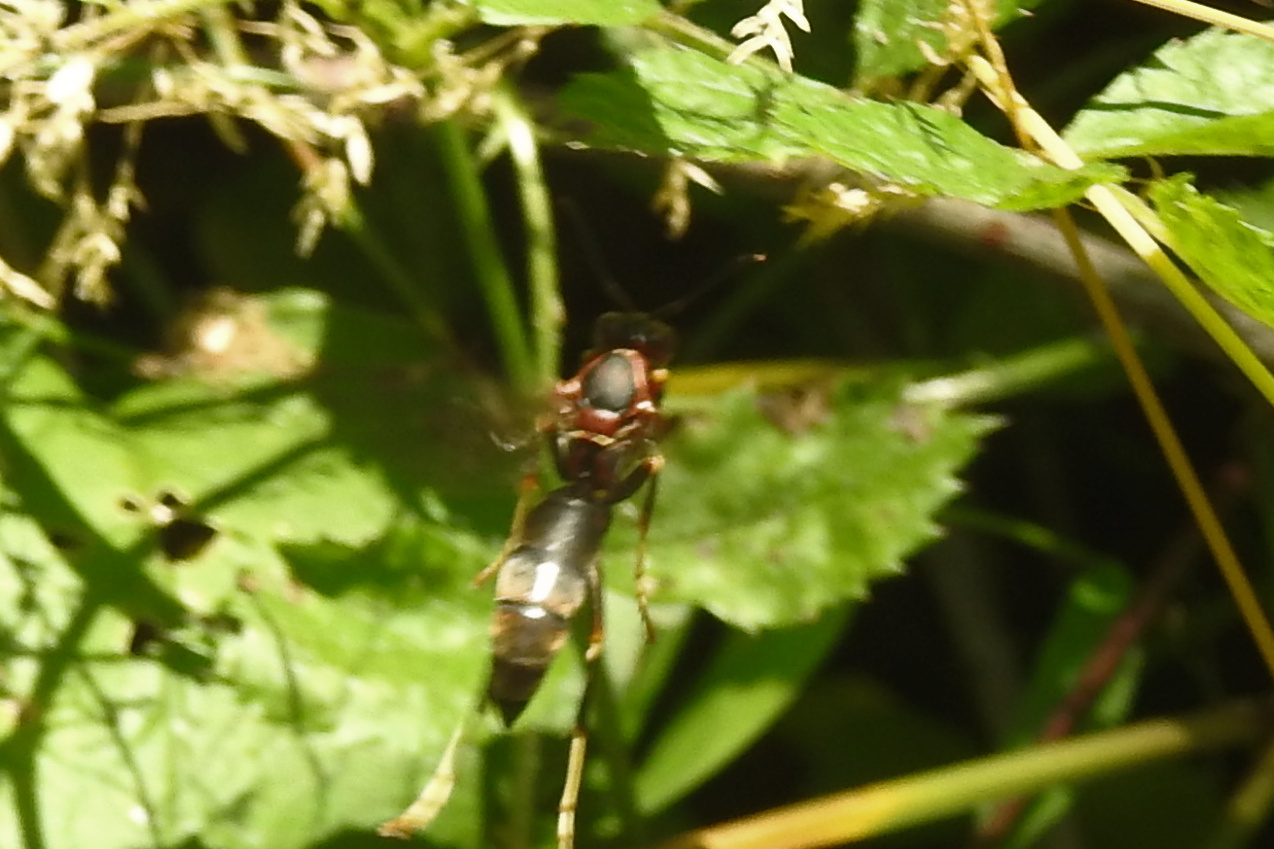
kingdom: Animalia
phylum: Arthropoda
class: Insecta
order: Hymenoptera
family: Eumenidae
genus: Polistes
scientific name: Polistes metricus
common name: Metric paper wasp
